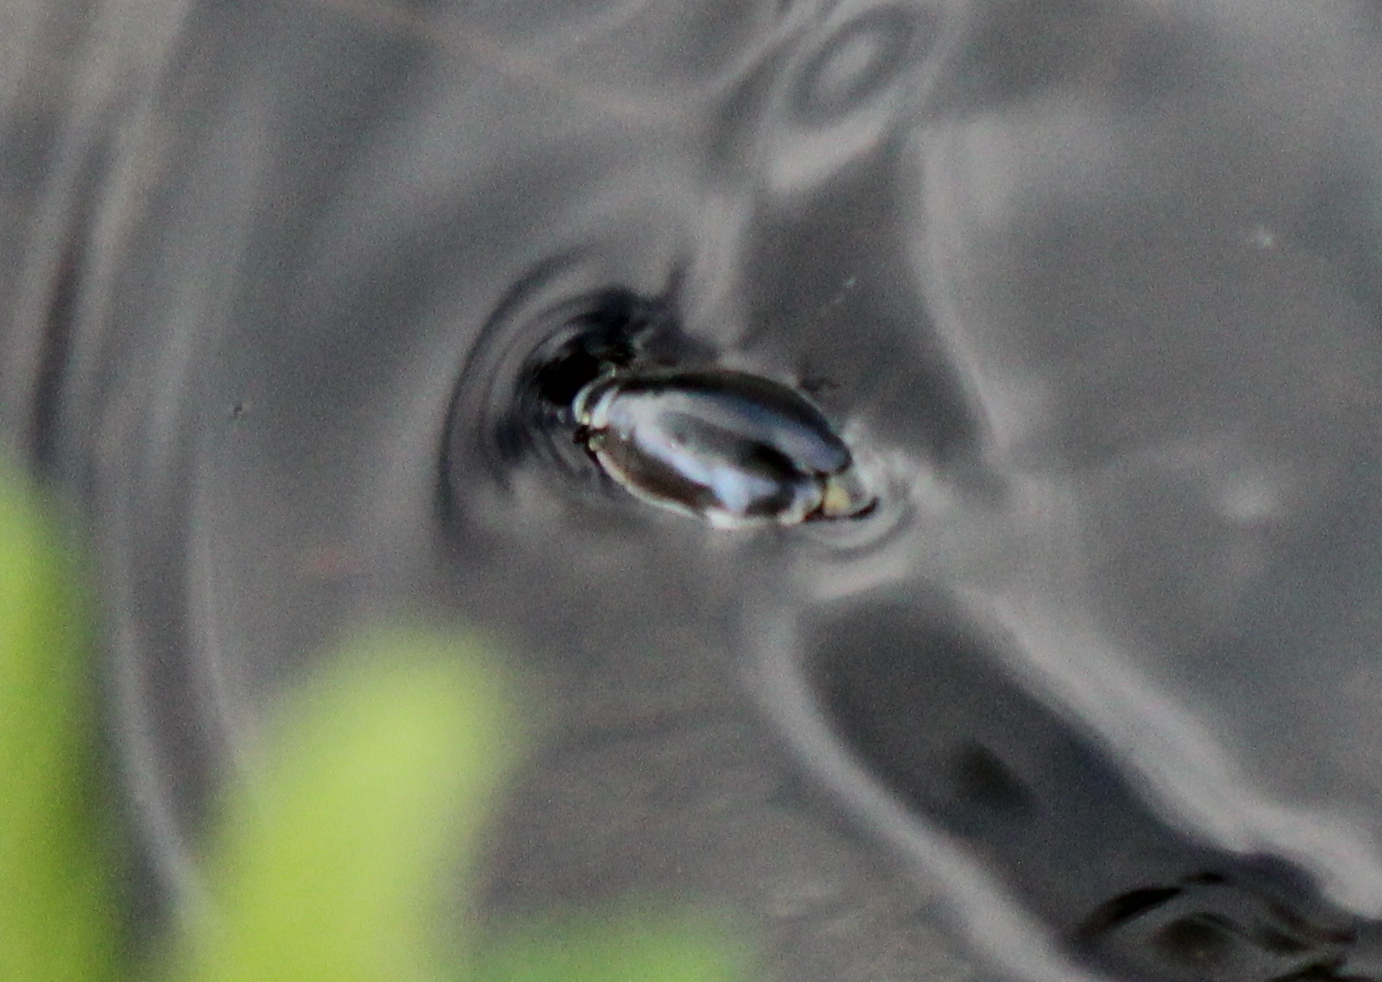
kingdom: Animalia
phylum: Arthropoda
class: Insecta
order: Coleoptera
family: Gyrinidae
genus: Dineutus
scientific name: Dineutus
